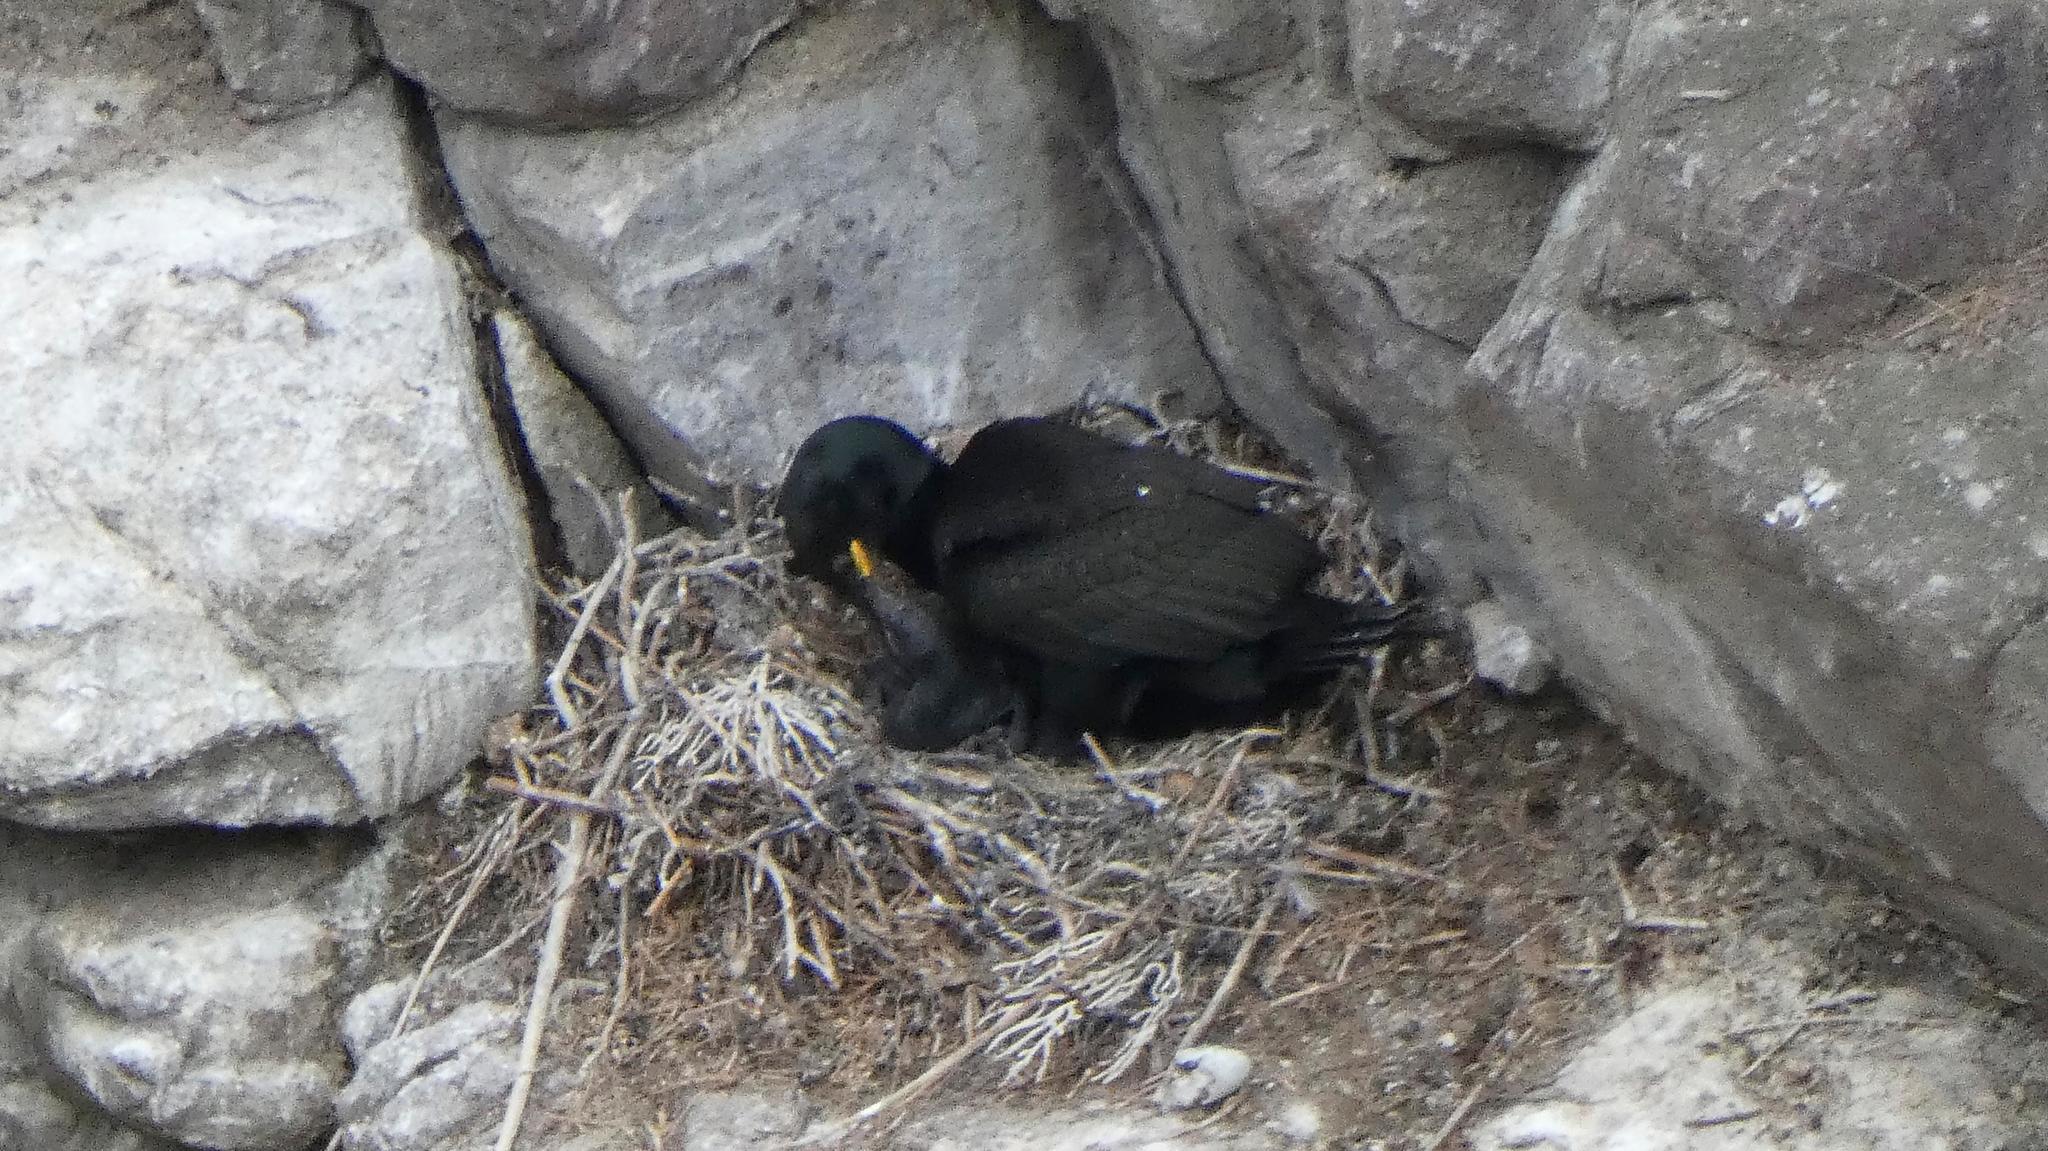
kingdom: Animalia
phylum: Chordata
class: Aves
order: Suliformes
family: Phalacrocoracidae
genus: Phalacrocorax
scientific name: Phalacrocorax aristotelis
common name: European shag
